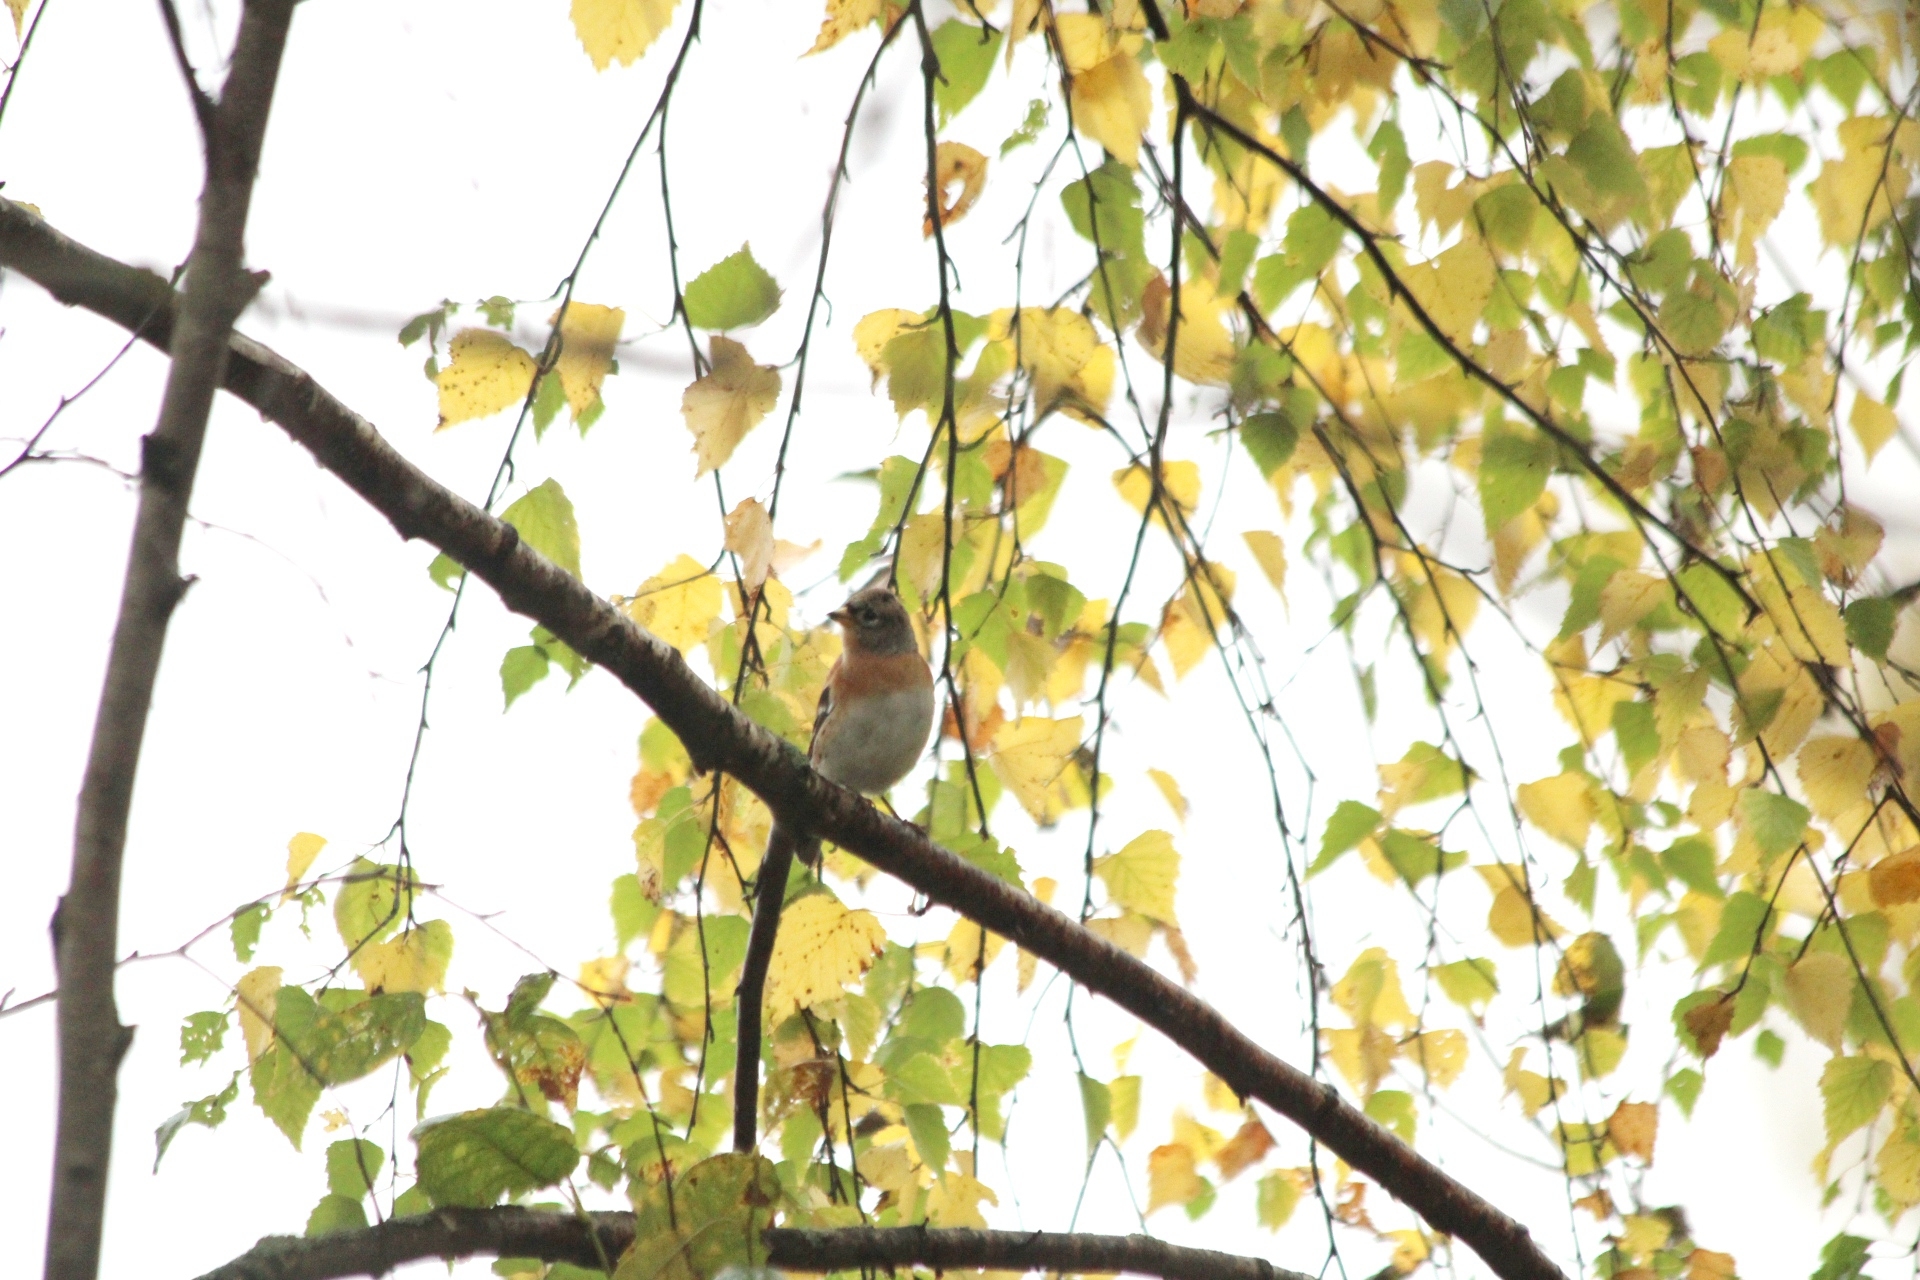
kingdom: Animalia
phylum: Chordata
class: Aves
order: Passeriformes
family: Fringillidae
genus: Fringilla
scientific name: Fringilla montifringilla
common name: Brambling
